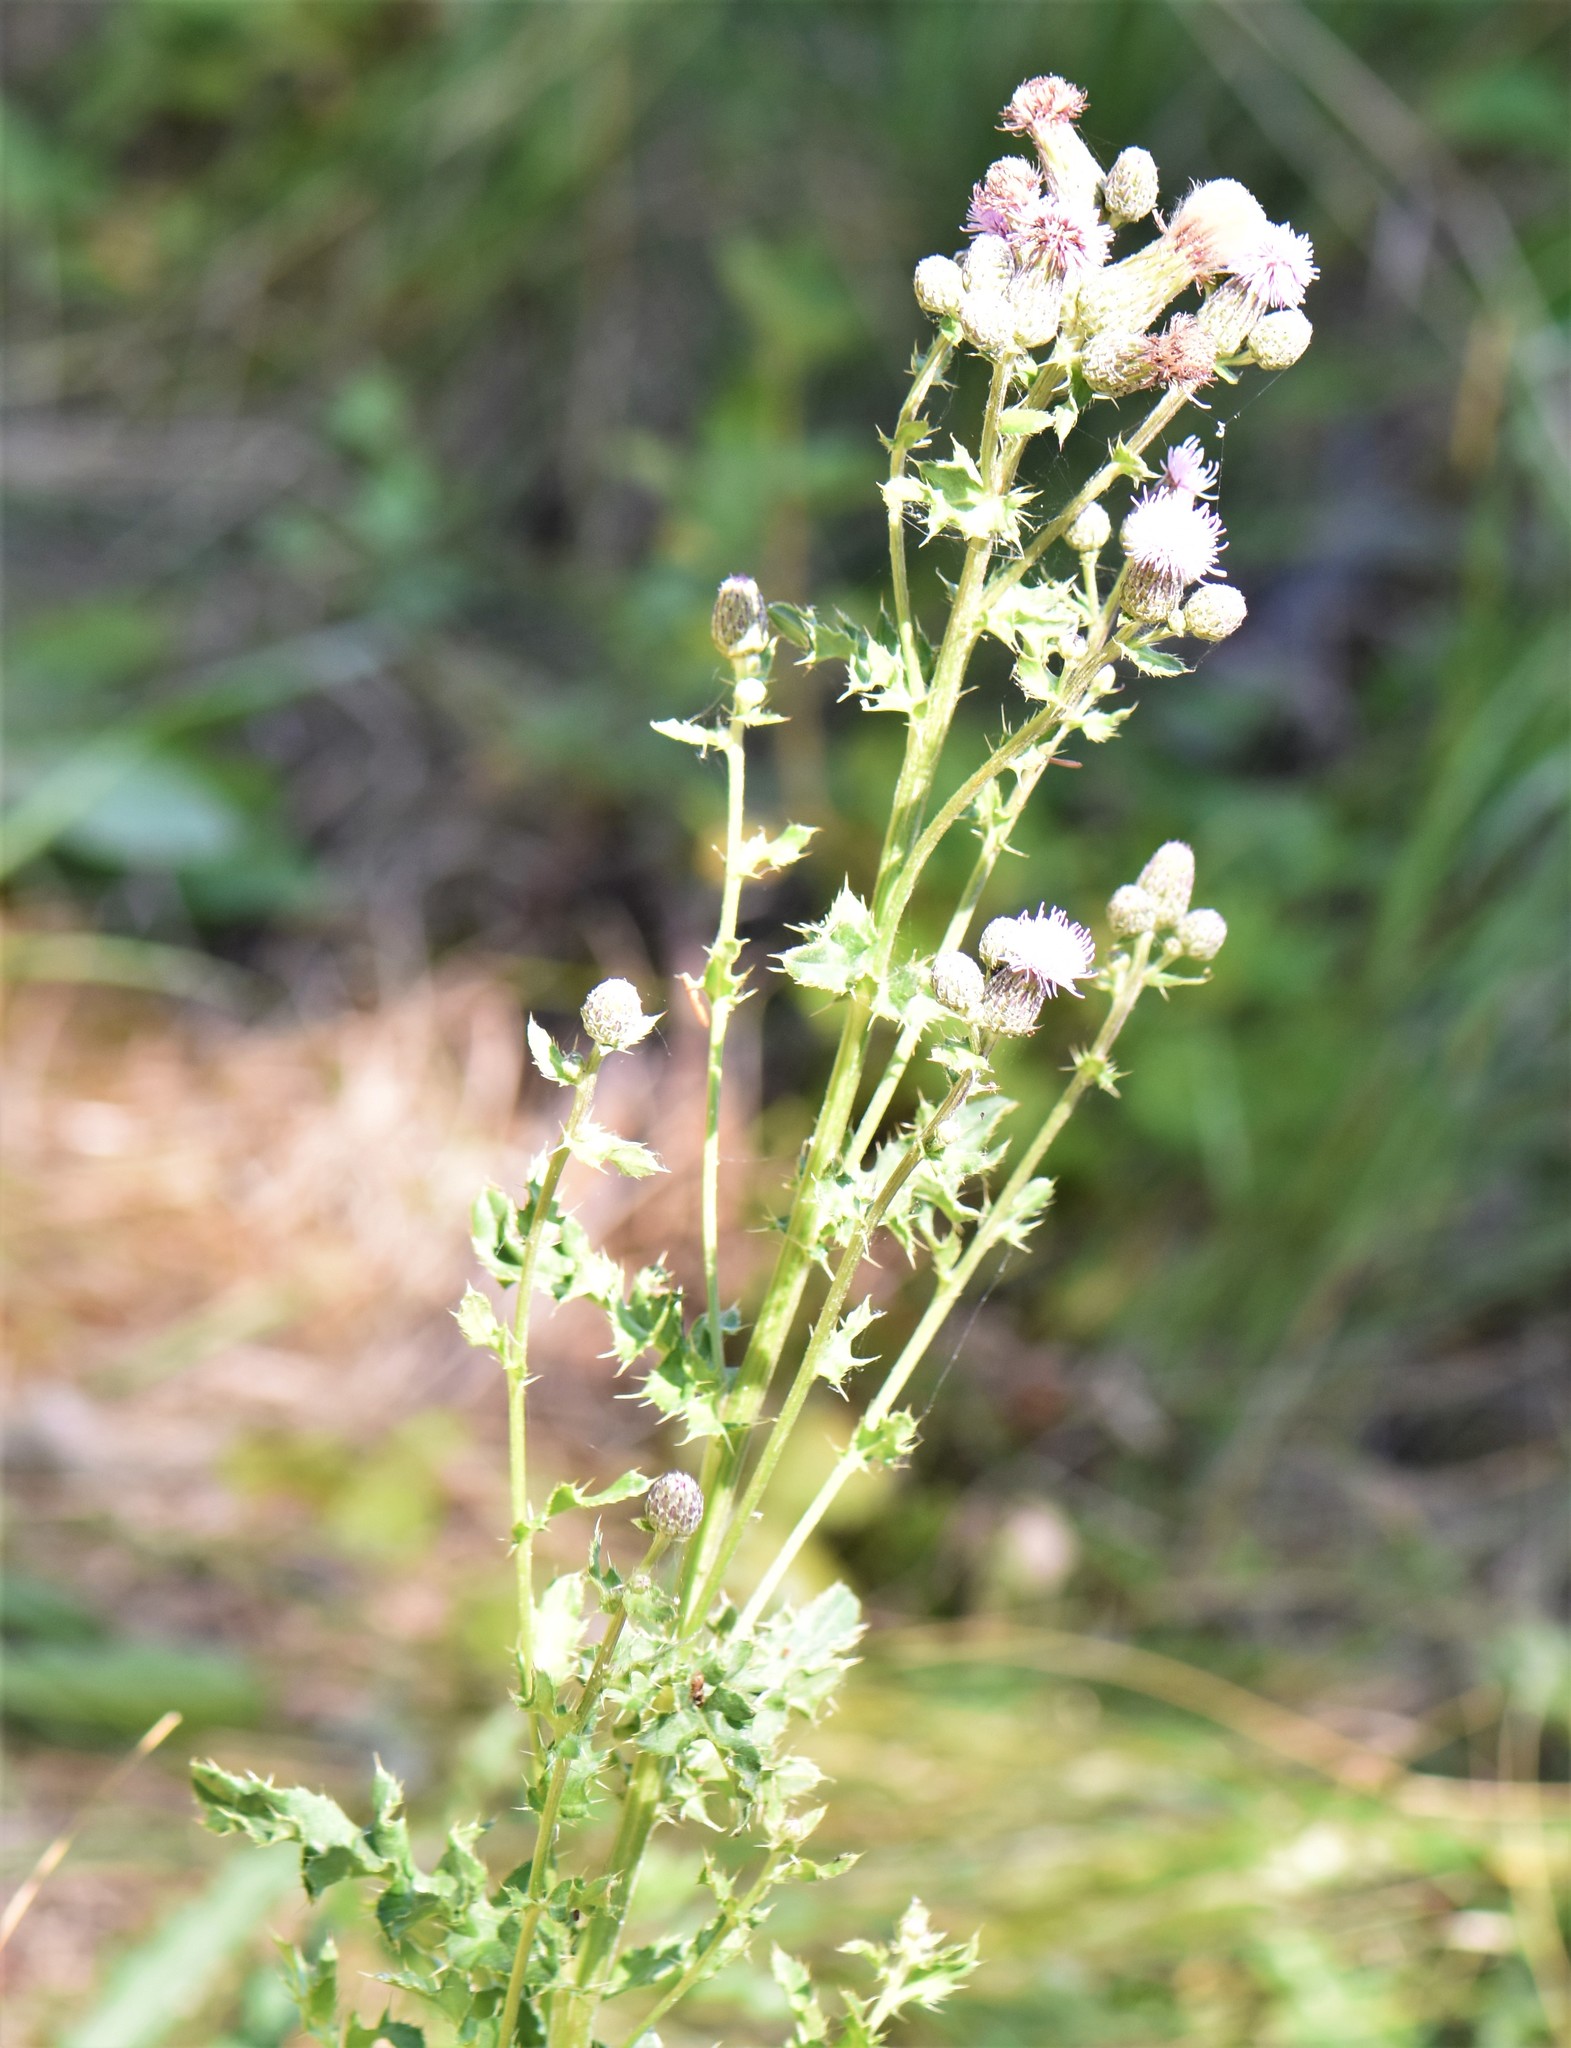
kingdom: Plantae
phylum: Tracheophyta
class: Magnoliopsida
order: Asterales
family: Asteraceae
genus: Cirsium
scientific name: Cirsium arvense
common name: Creeping thistle
